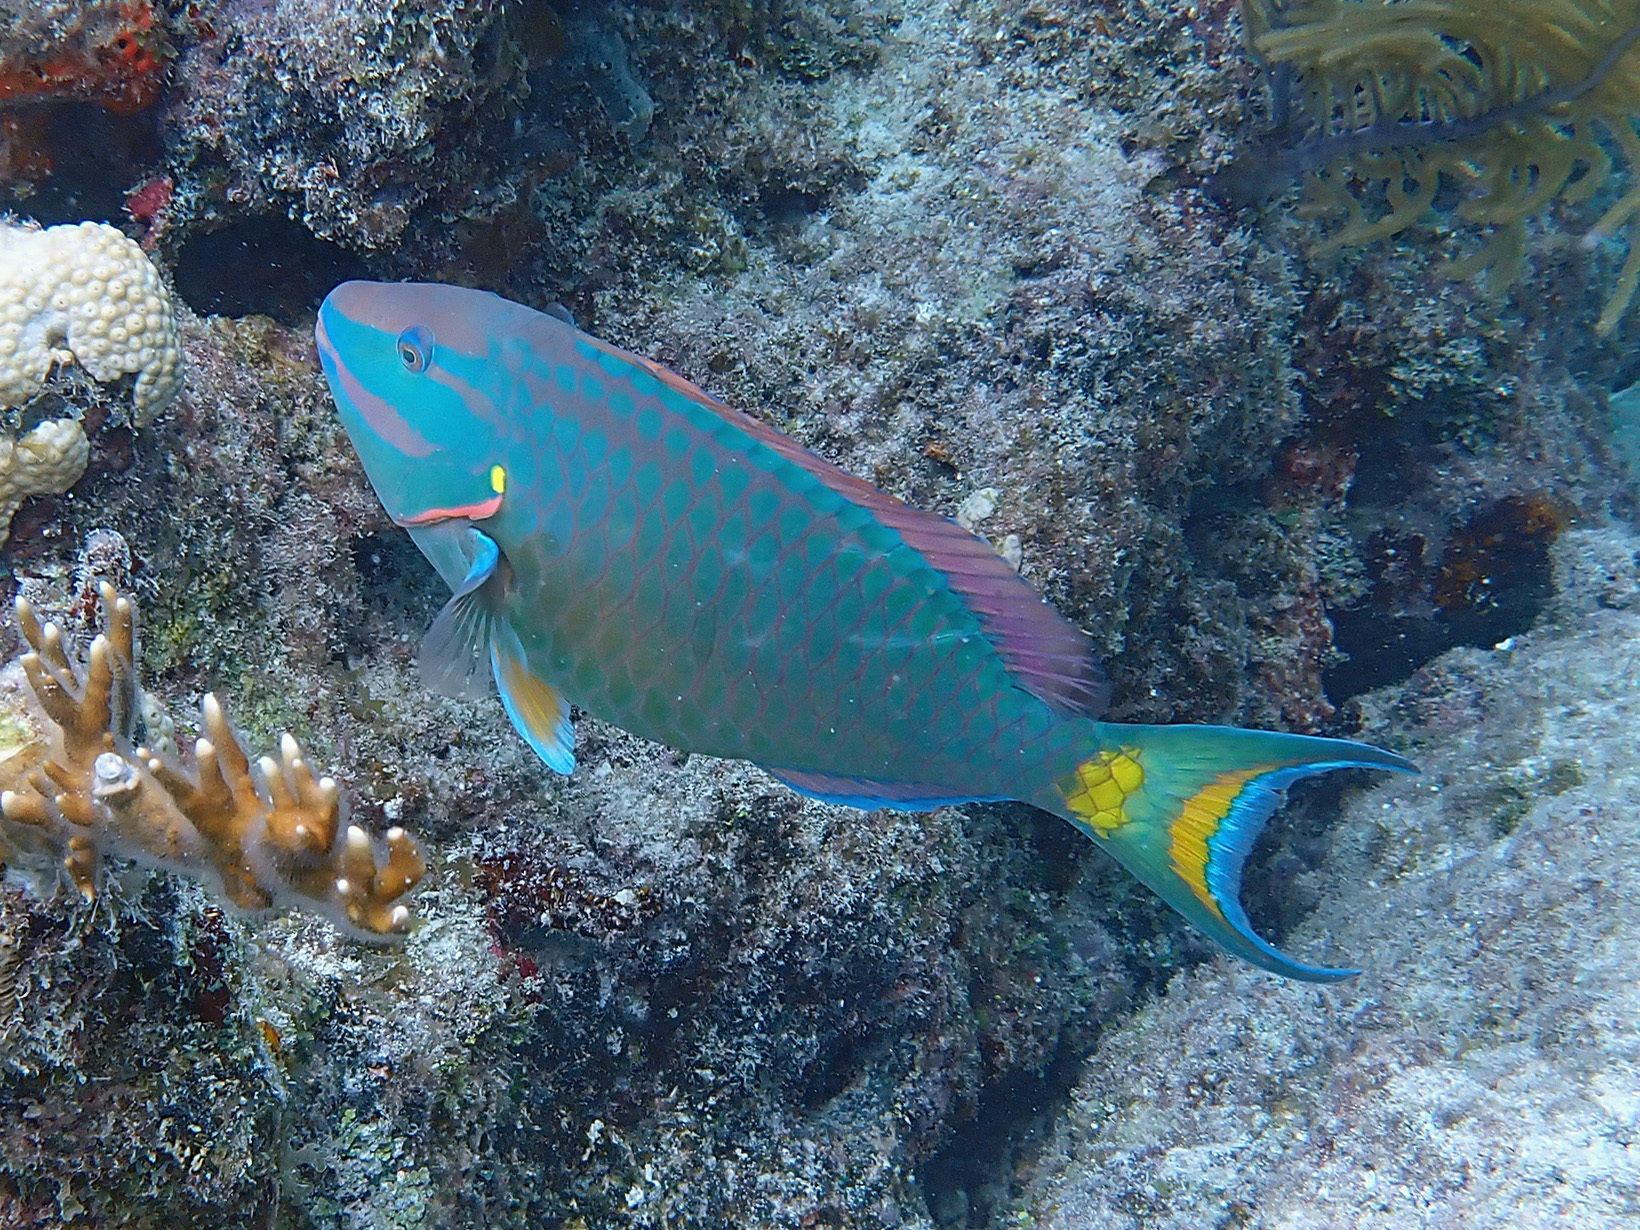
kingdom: Animalia
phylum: Chordata
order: Perciformes
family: Scaridae
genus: Sparisoma
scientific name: Sparisoma viride
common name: Stoplight parrotfish
